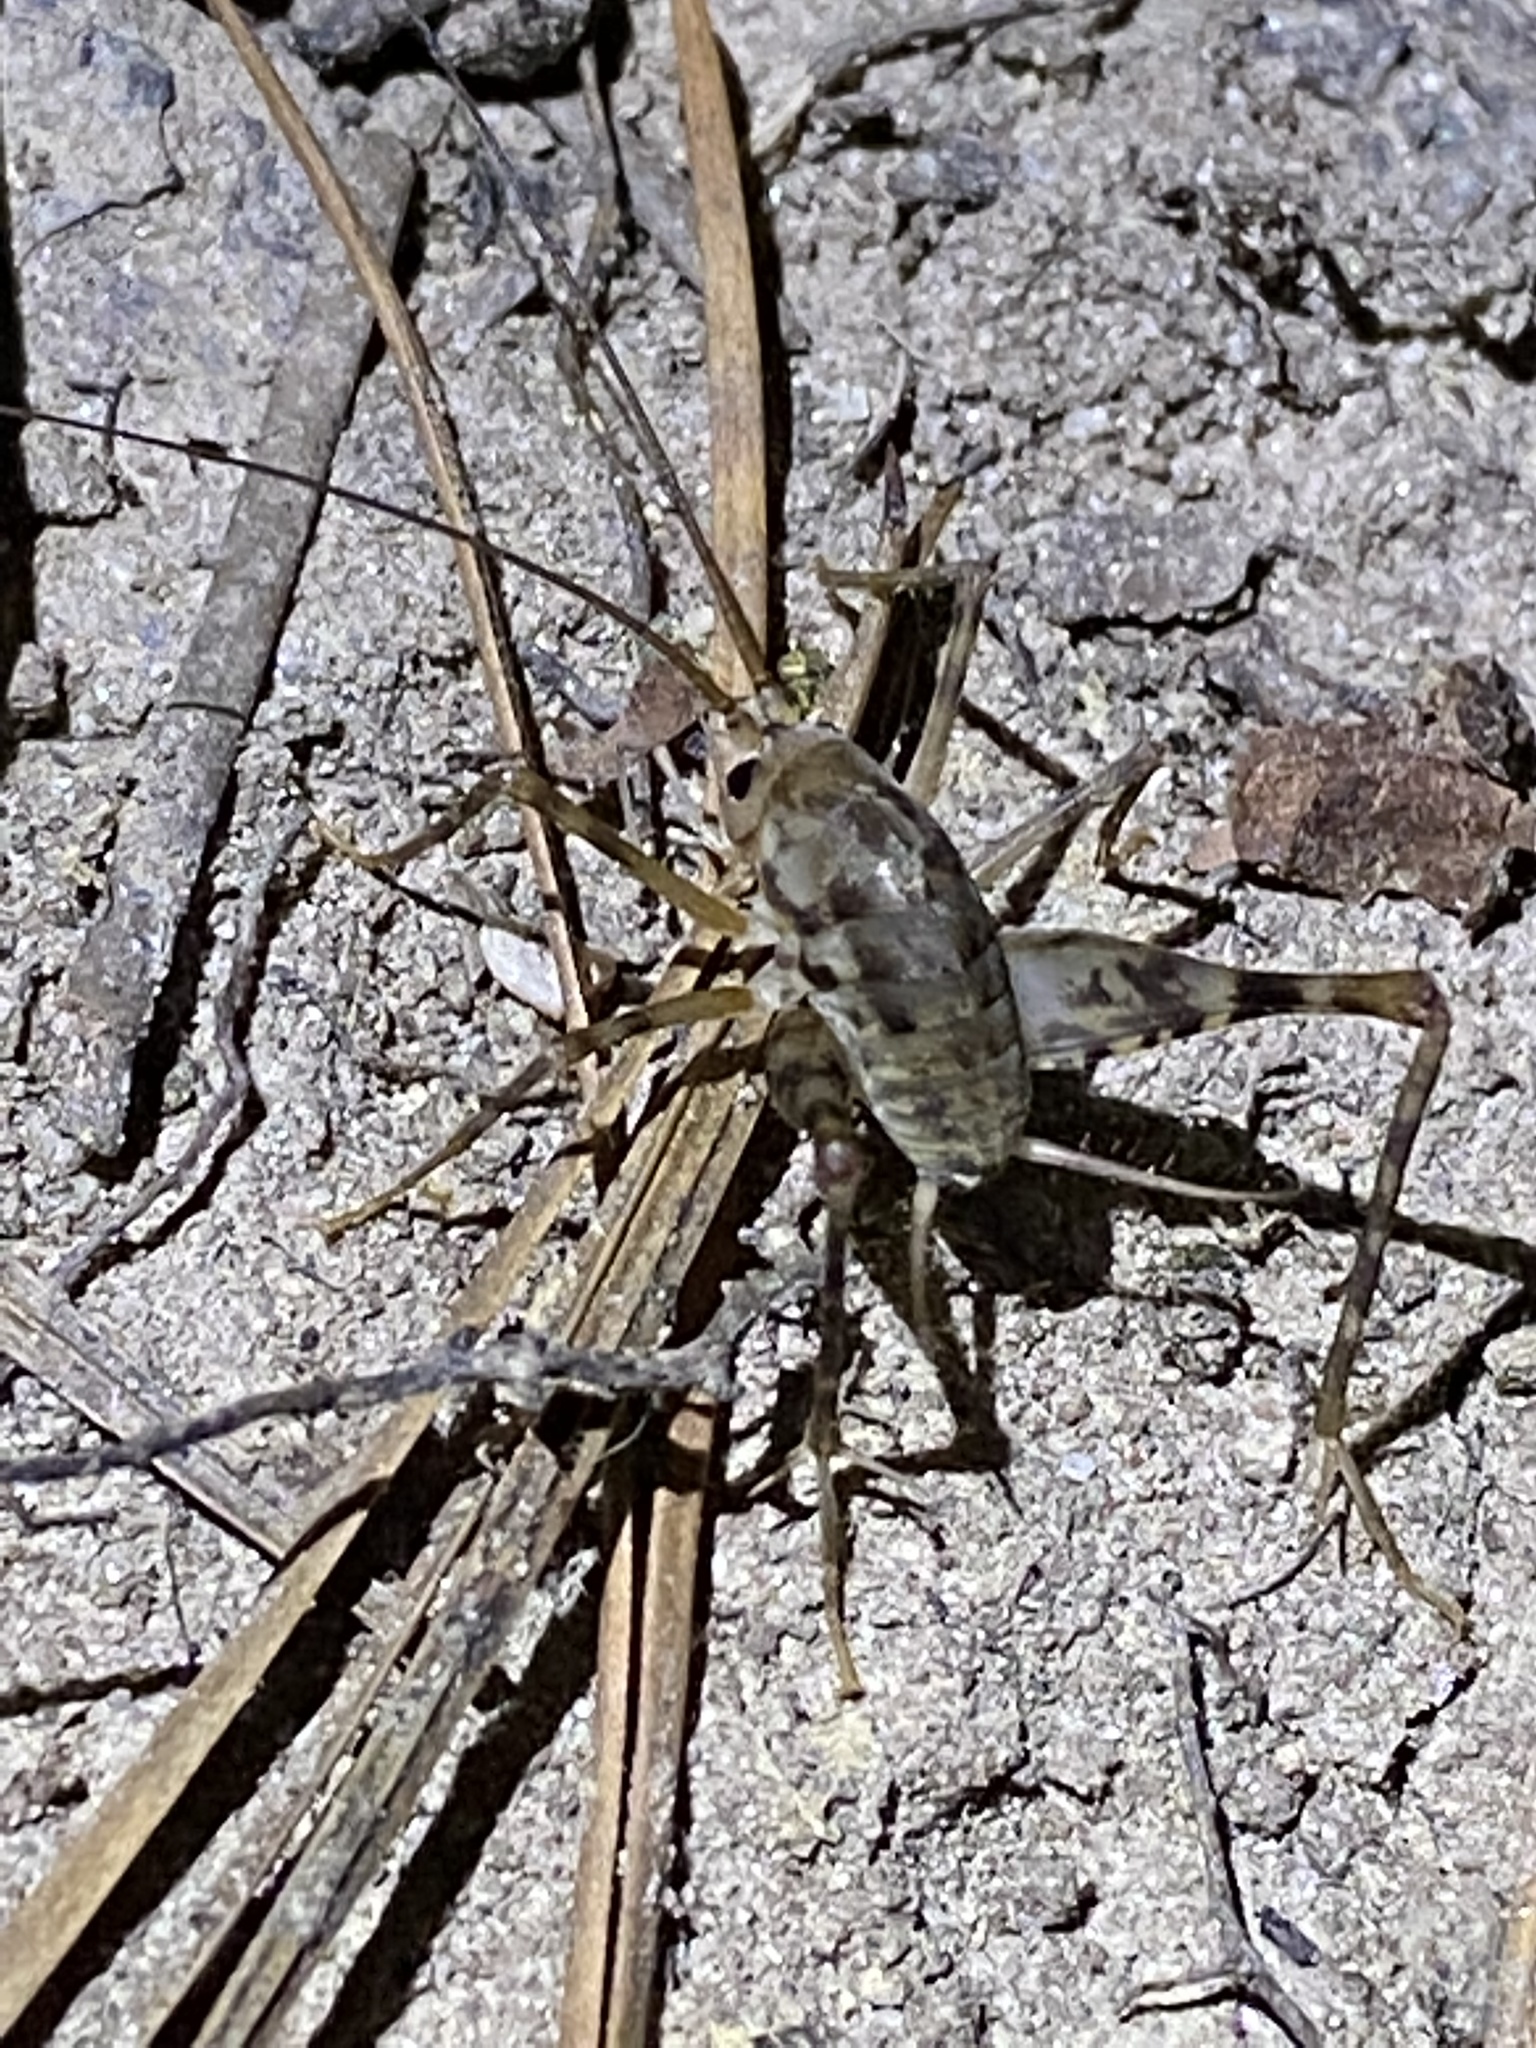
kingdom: Animalia
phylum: Arthropoda
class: Insecta
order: Orthoptera
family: Rhaphidophoridae
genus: Tachycines
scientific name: Tachycines asynamorus
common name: Greenhouse camel cricket
